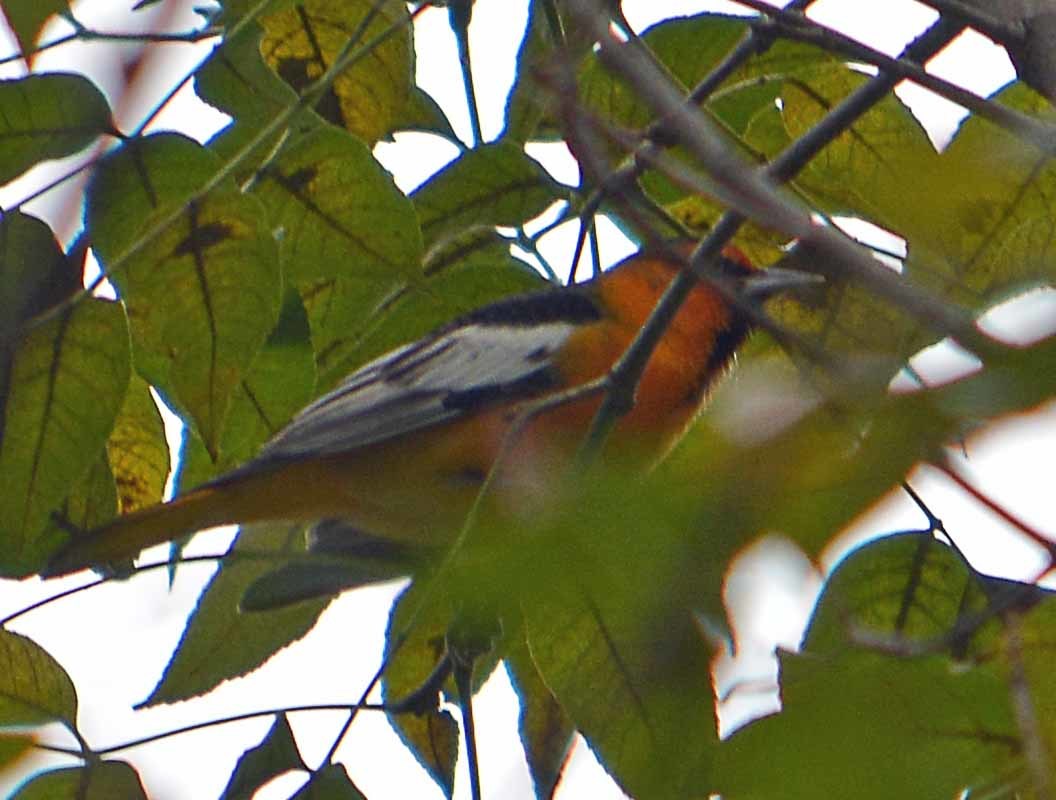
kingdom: Animalia
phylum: Chordata
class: Aves
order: Passeriformes
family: Icteridae
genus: Icterus
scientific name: Icterus bullockii
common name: Bullock's oriole
